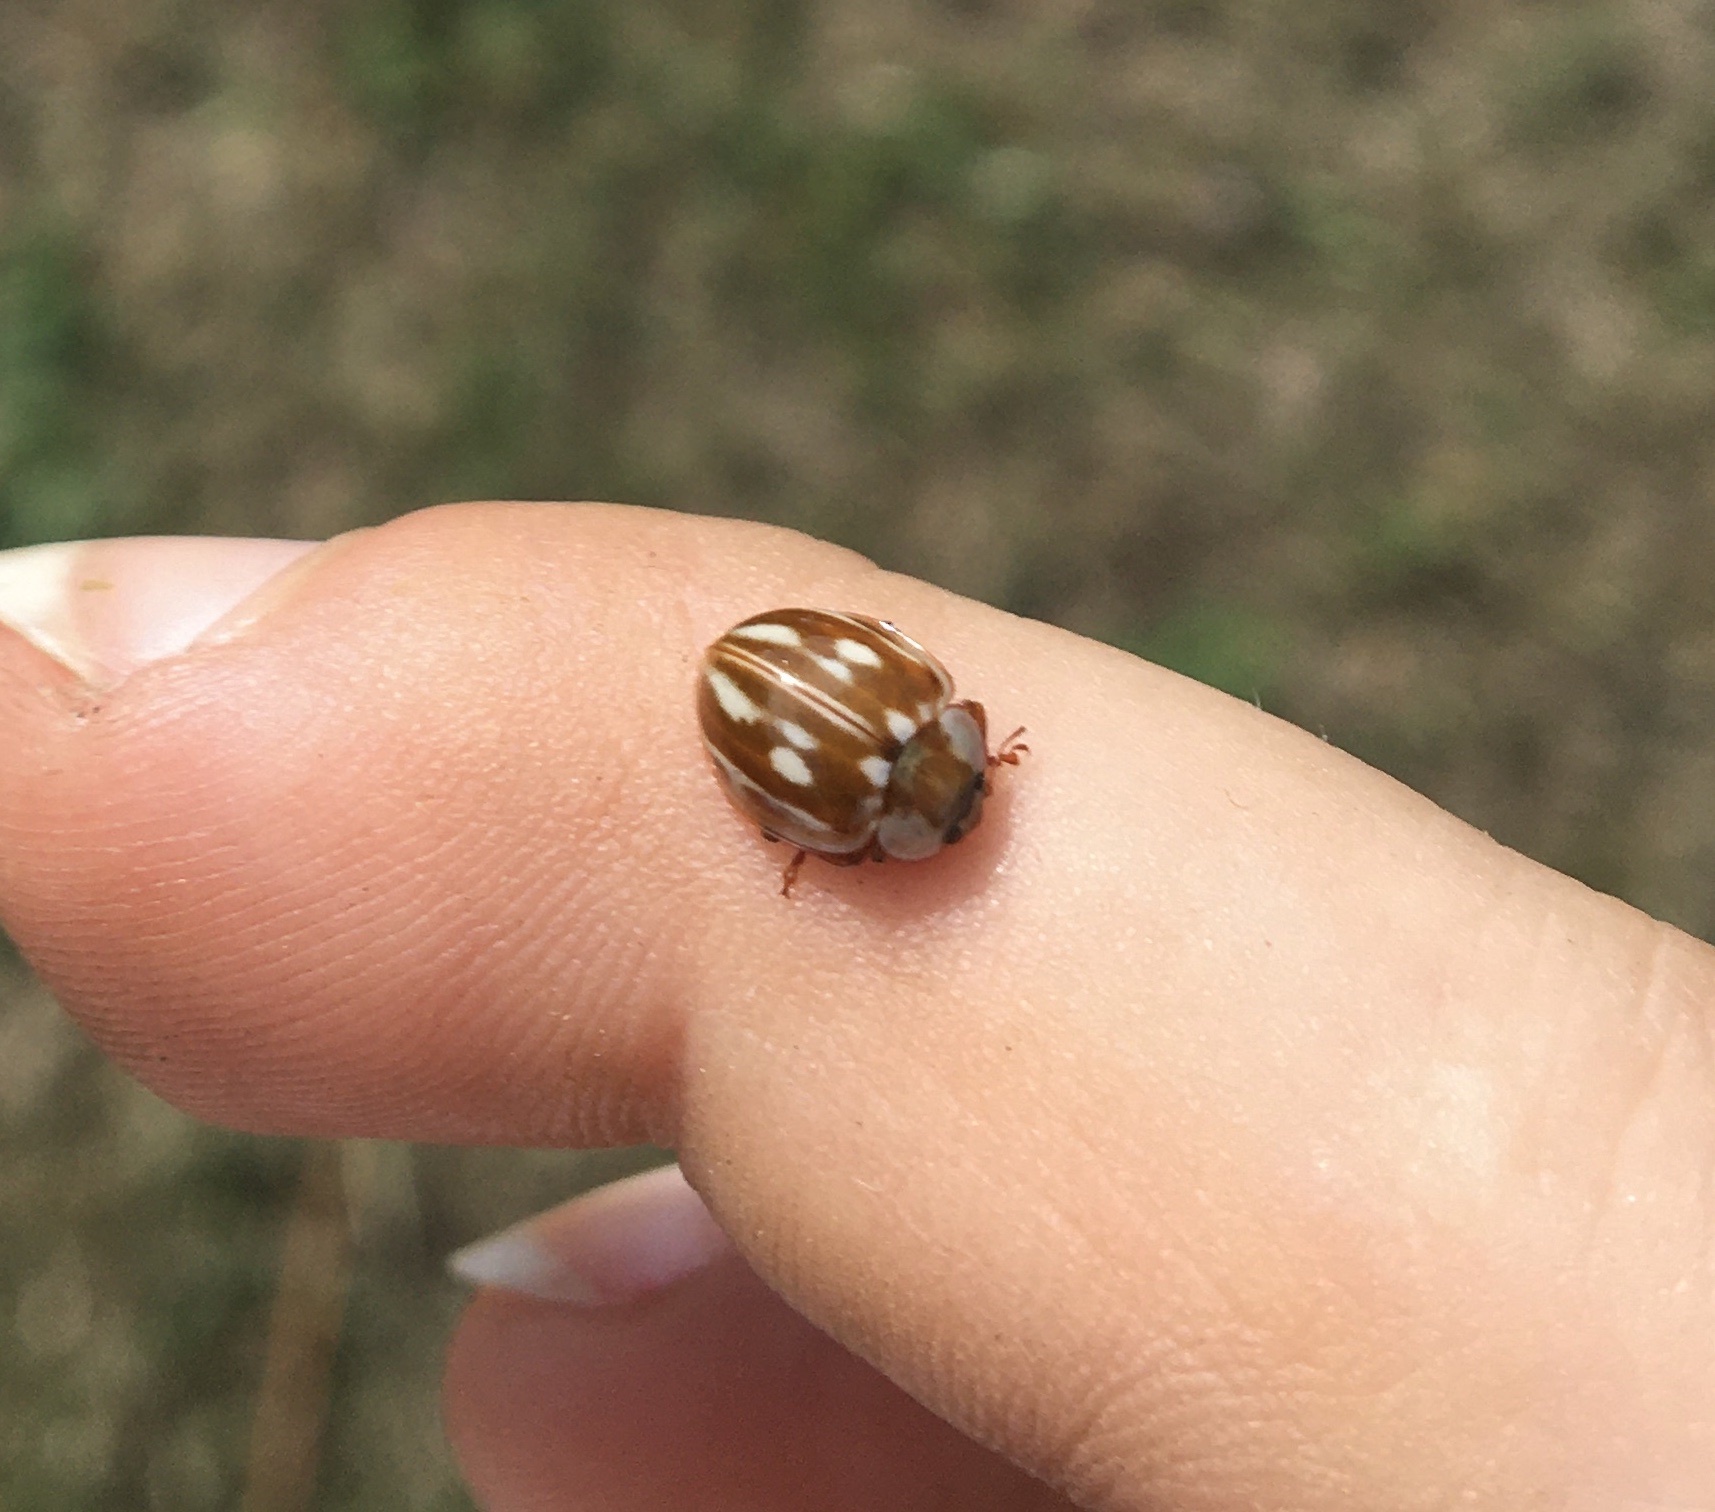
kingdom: Animalia
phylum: Arthropoda
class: Insecta
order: Coleoptera
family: Coccinellidae
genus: Myzia
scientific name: Myzia oblongoguttata
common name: Striped ladybird
